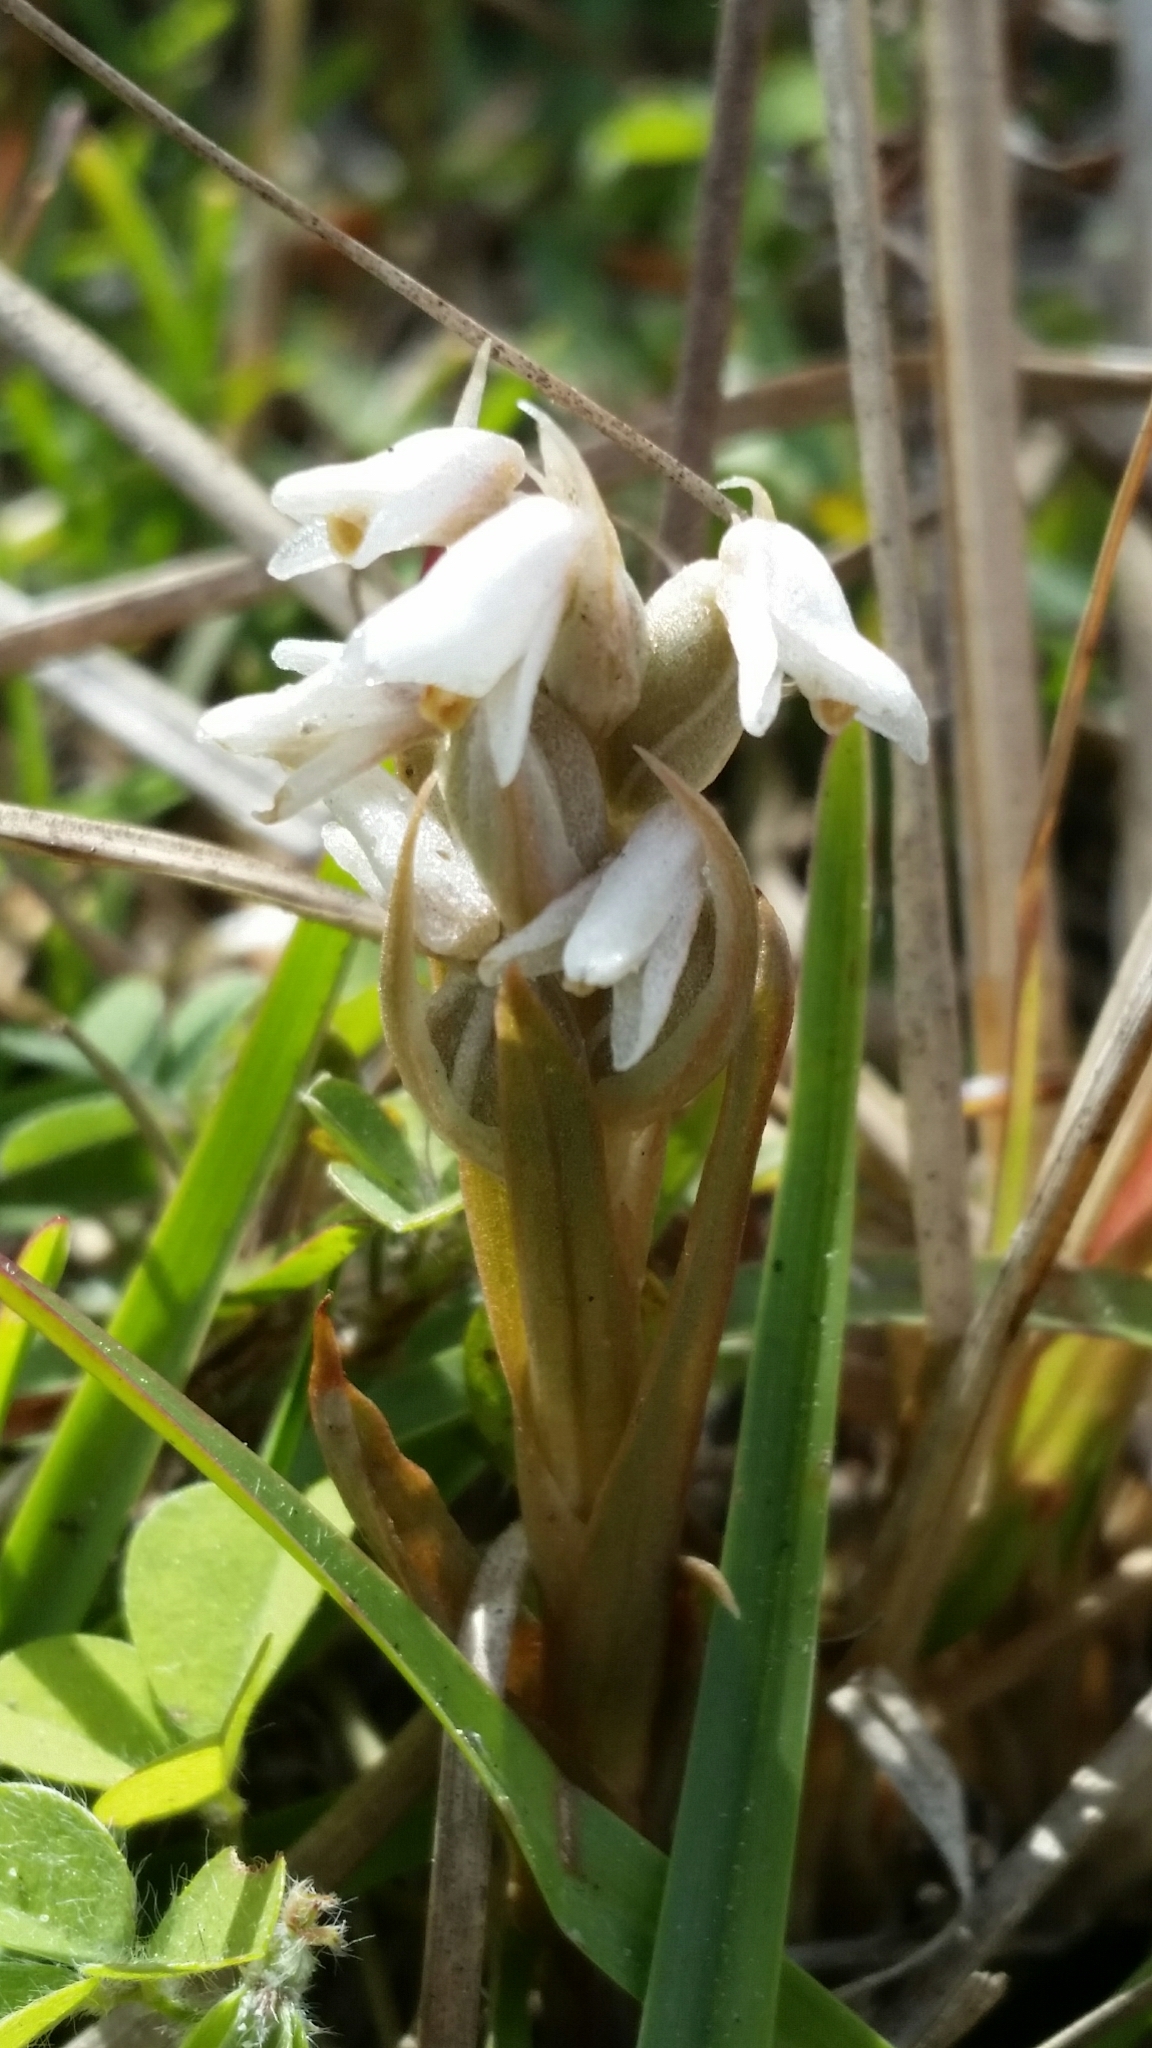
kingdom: Plantae
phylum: Tracheophyta
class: Liliopsida
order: Asparagales
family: Orchidaceae
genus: Zeuxine
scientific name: Zeuxine strateumatica
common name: Soldier's orchid
